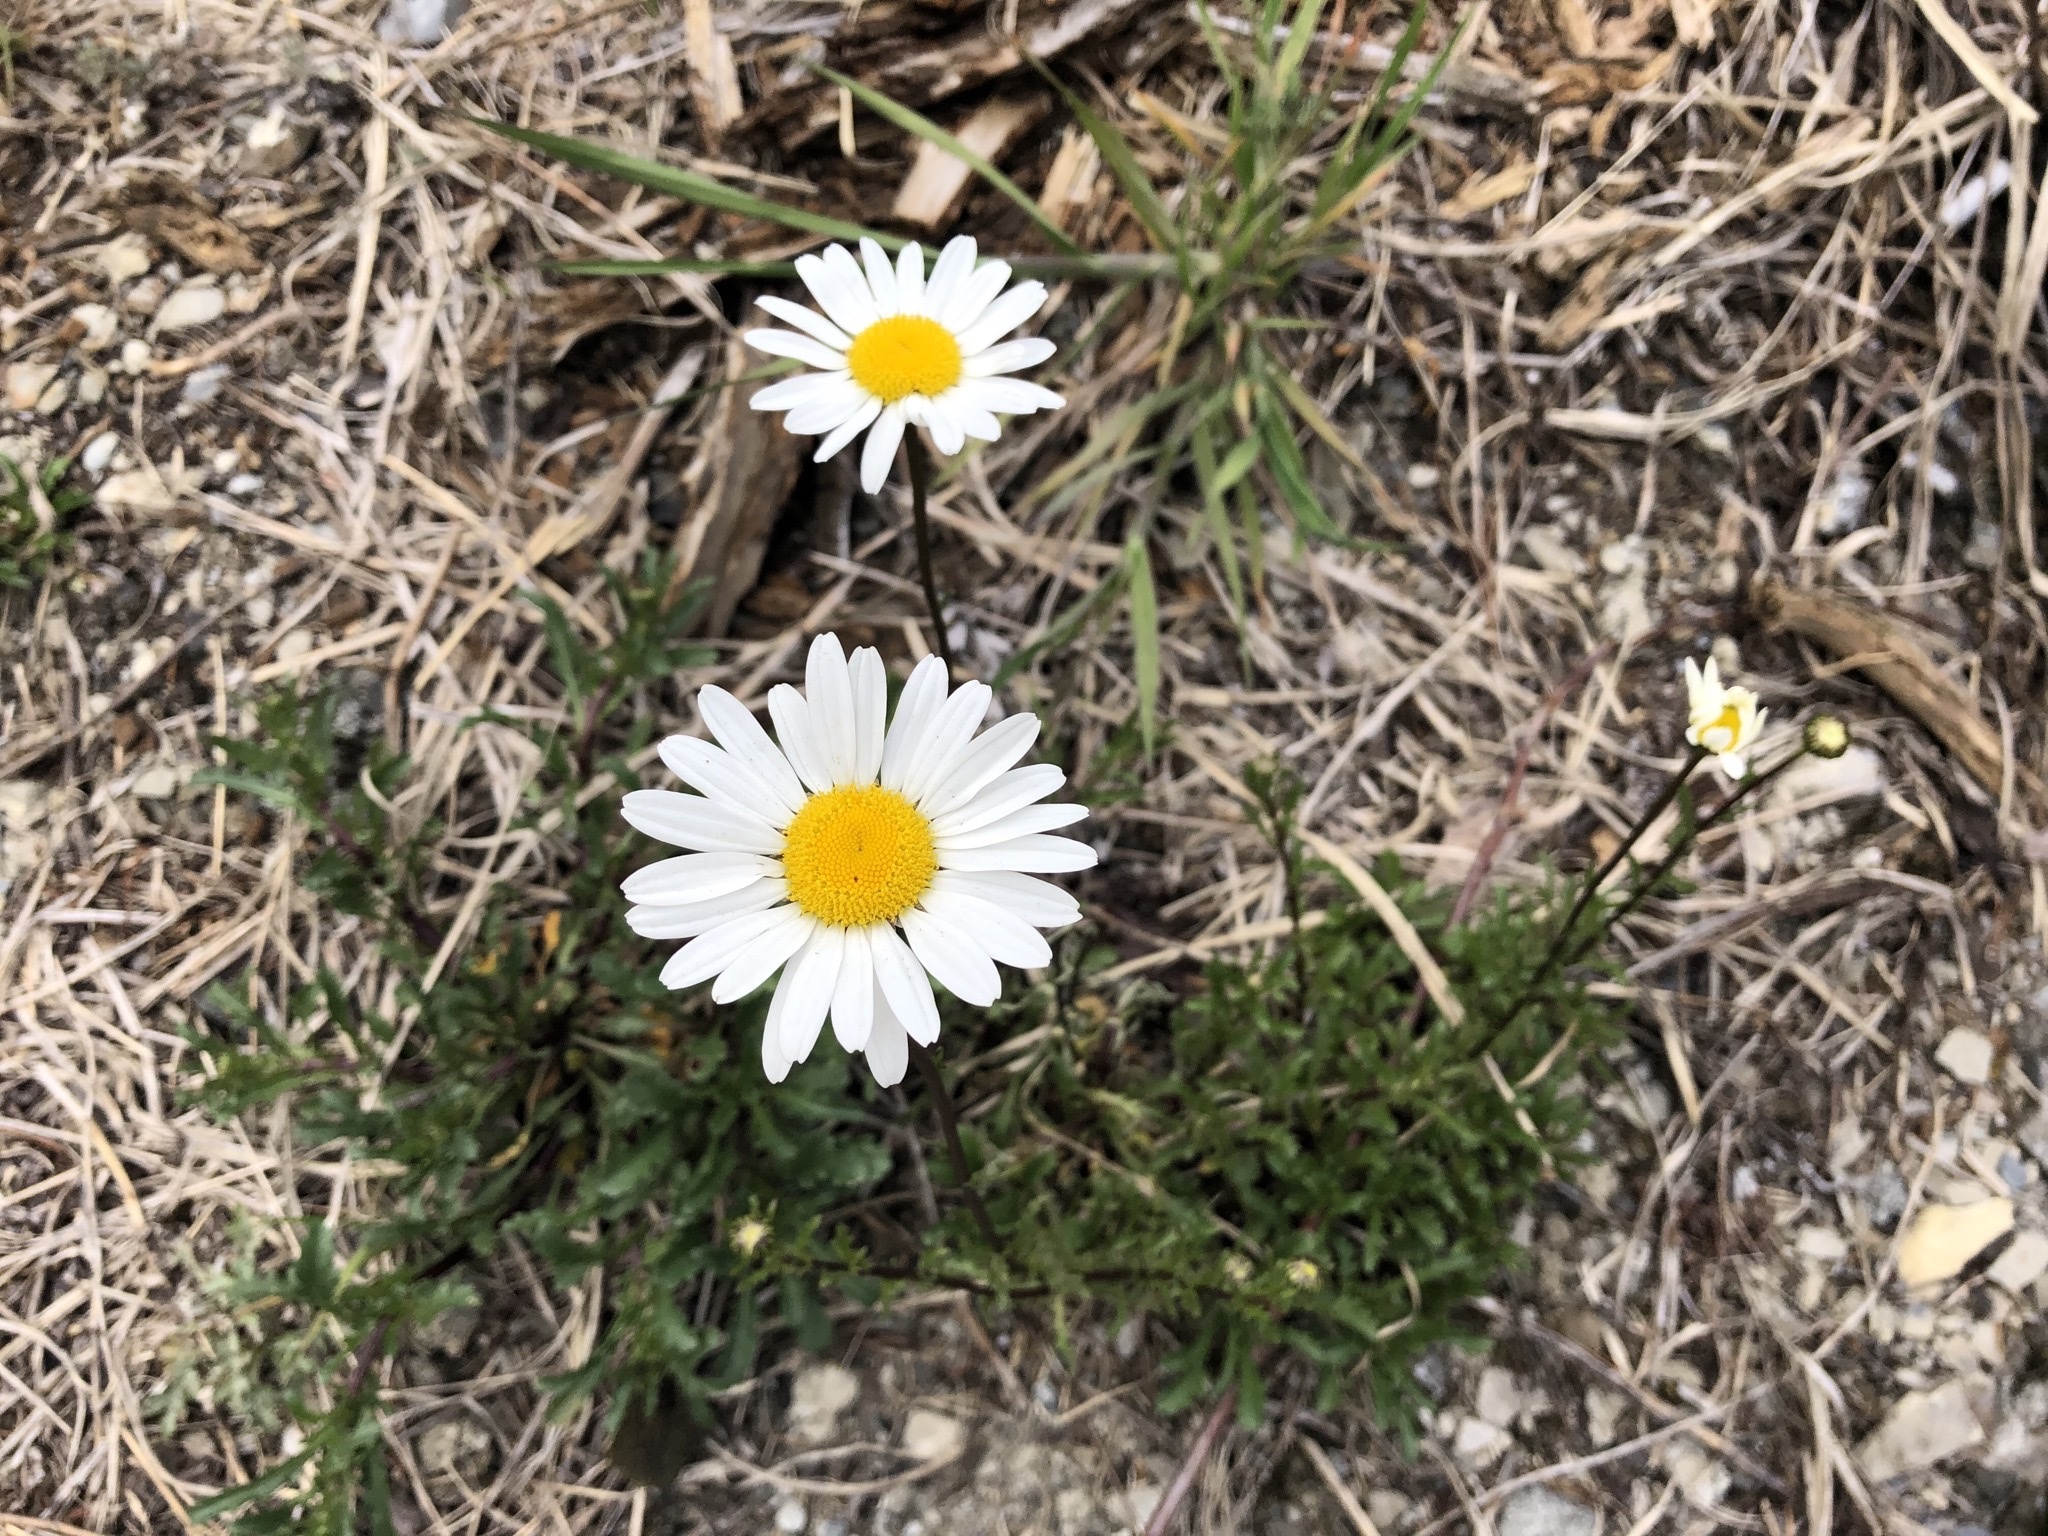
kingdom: Plantae
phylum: Tracheophyta
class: Magnoliopsida
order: Asterales
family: Asteraceae
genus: Leucanthemum
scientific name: Leucanthemum vulgare
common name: Oxeye daisy
